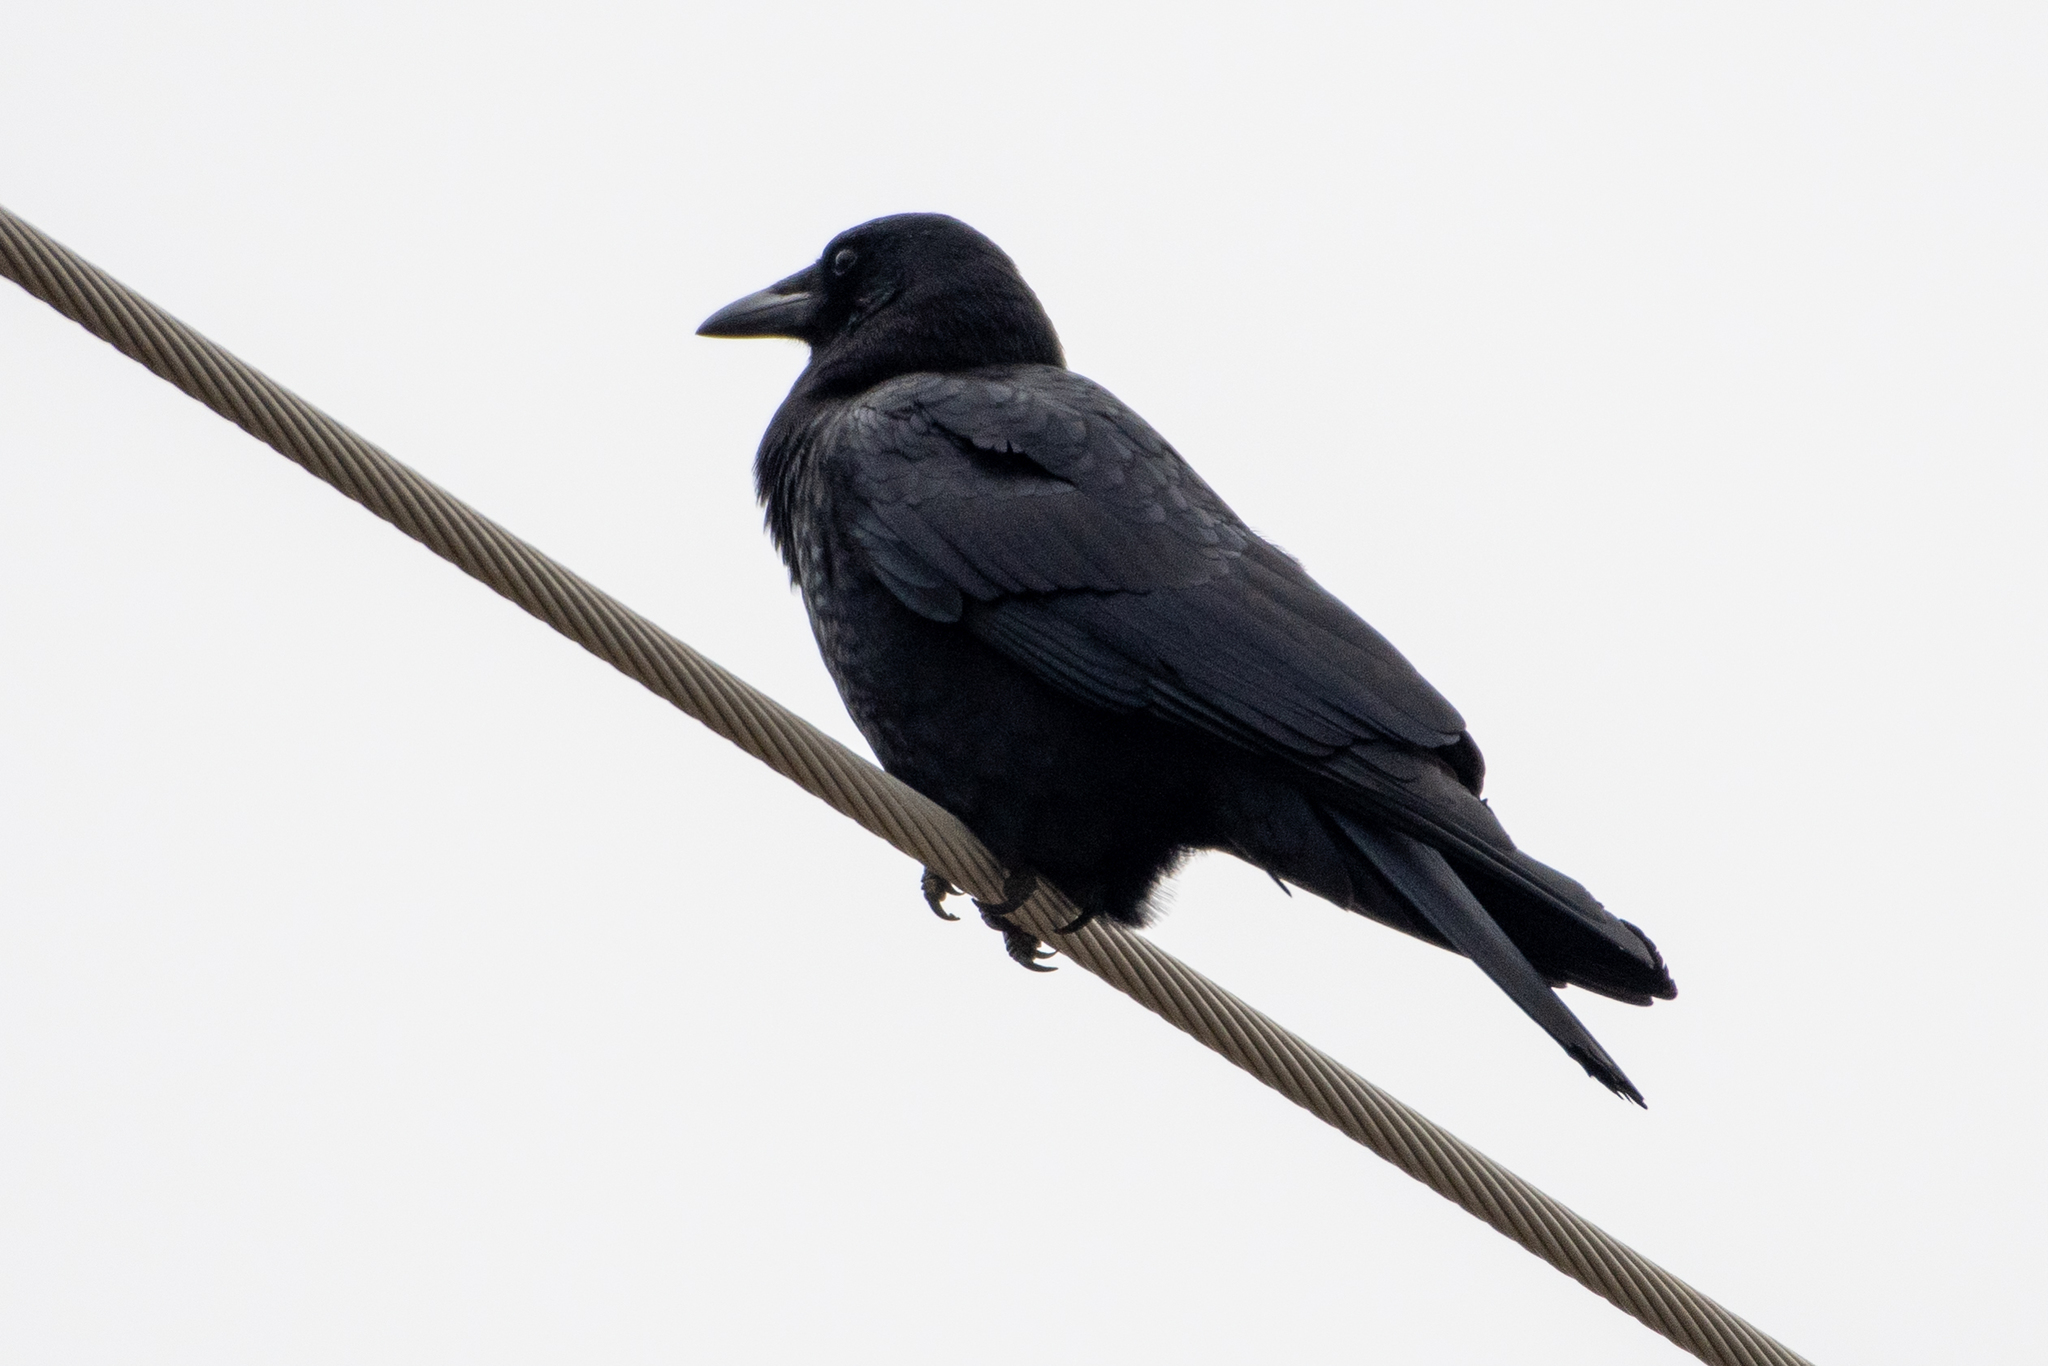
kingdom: Animalia
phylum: Chordata
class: Aves
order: Passeriformes
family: Corvidae
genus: Corvus
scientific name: Corvus brachyrhynchos
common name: American crow
